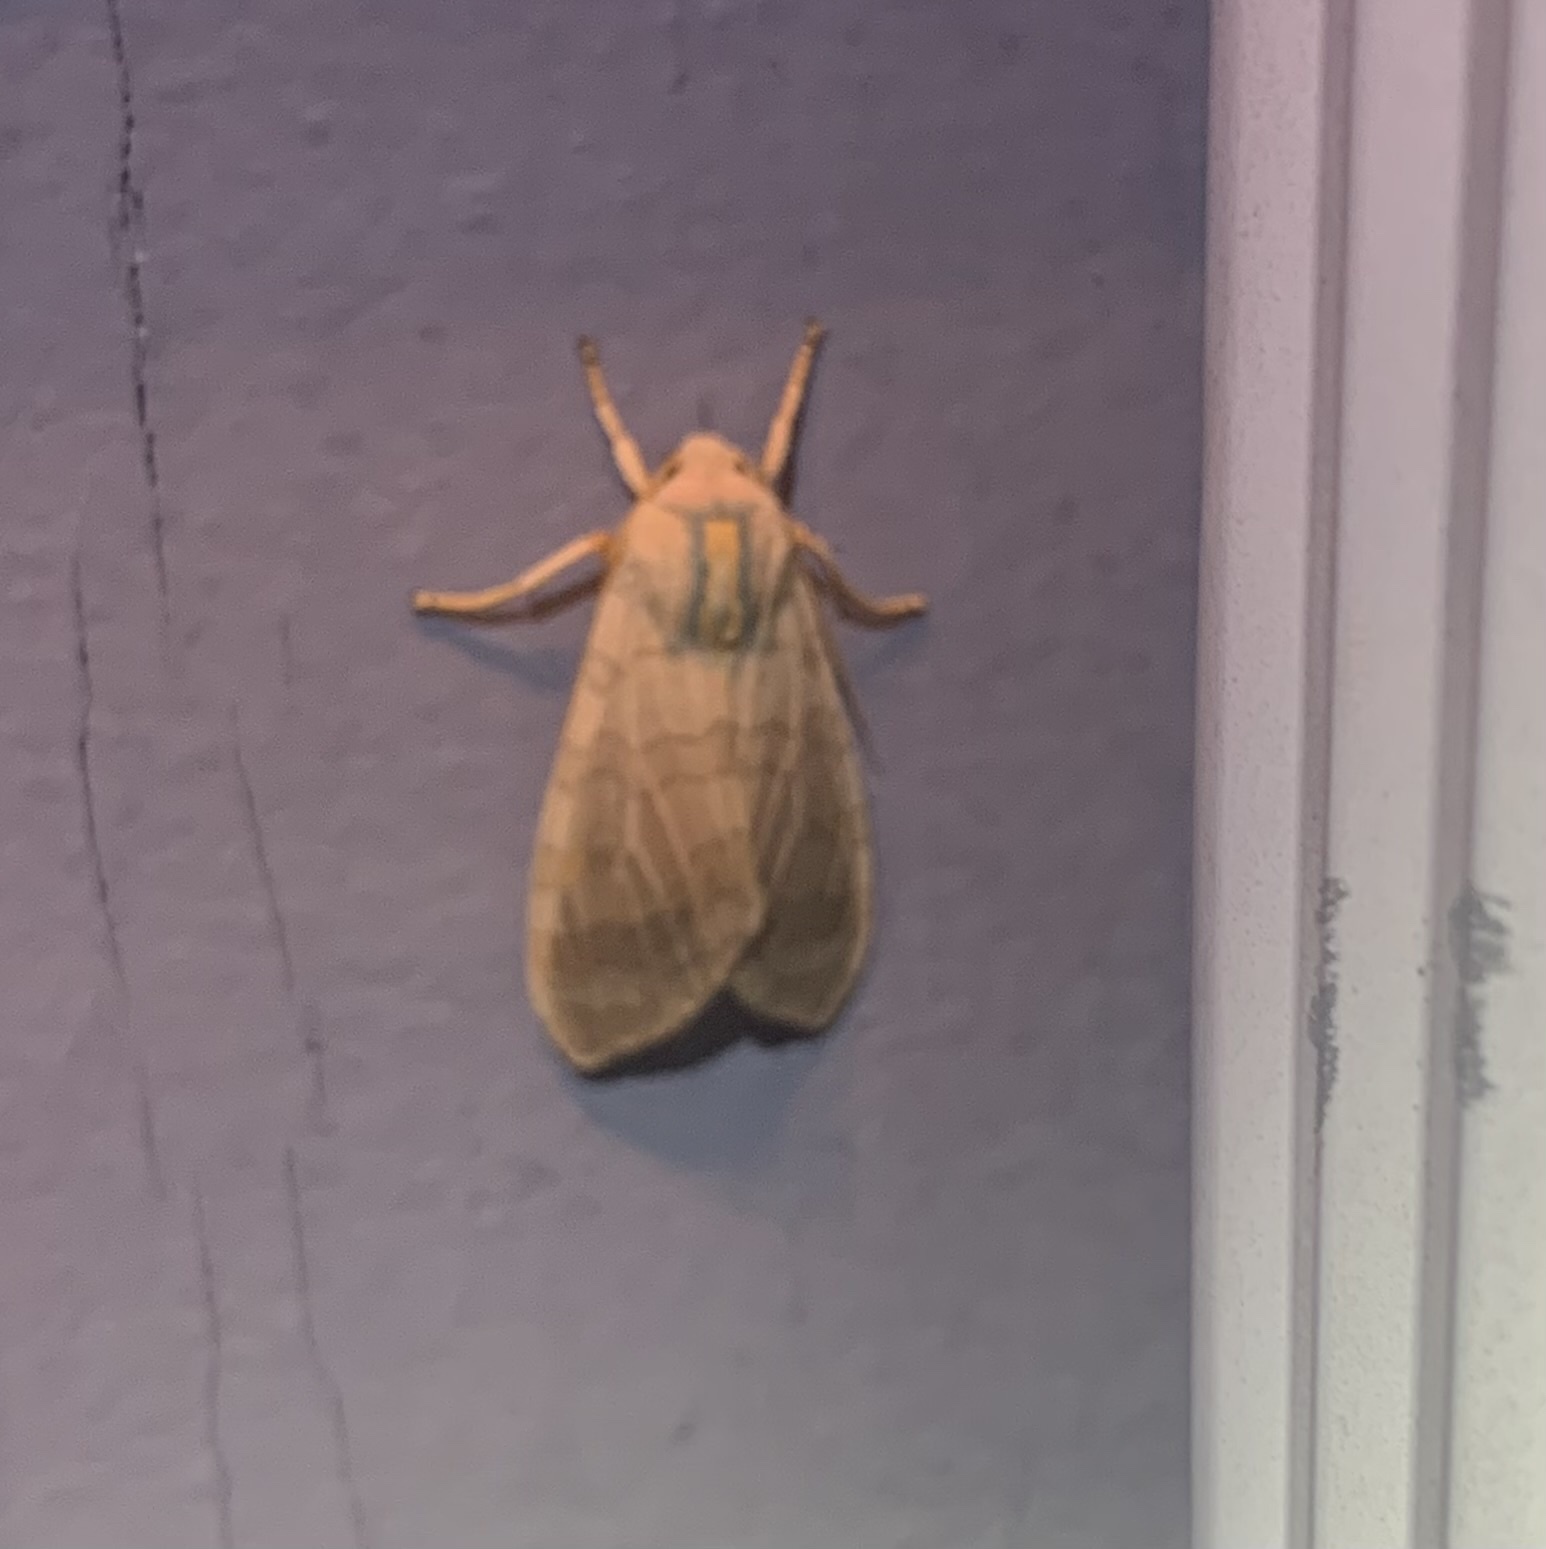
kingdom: Animalia
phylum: Arthropoda
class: Insecta
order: Lepidoptera
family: Erebidae
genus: Halysidota
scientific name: Halysidota tessellaris
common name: Banded tussock moth
